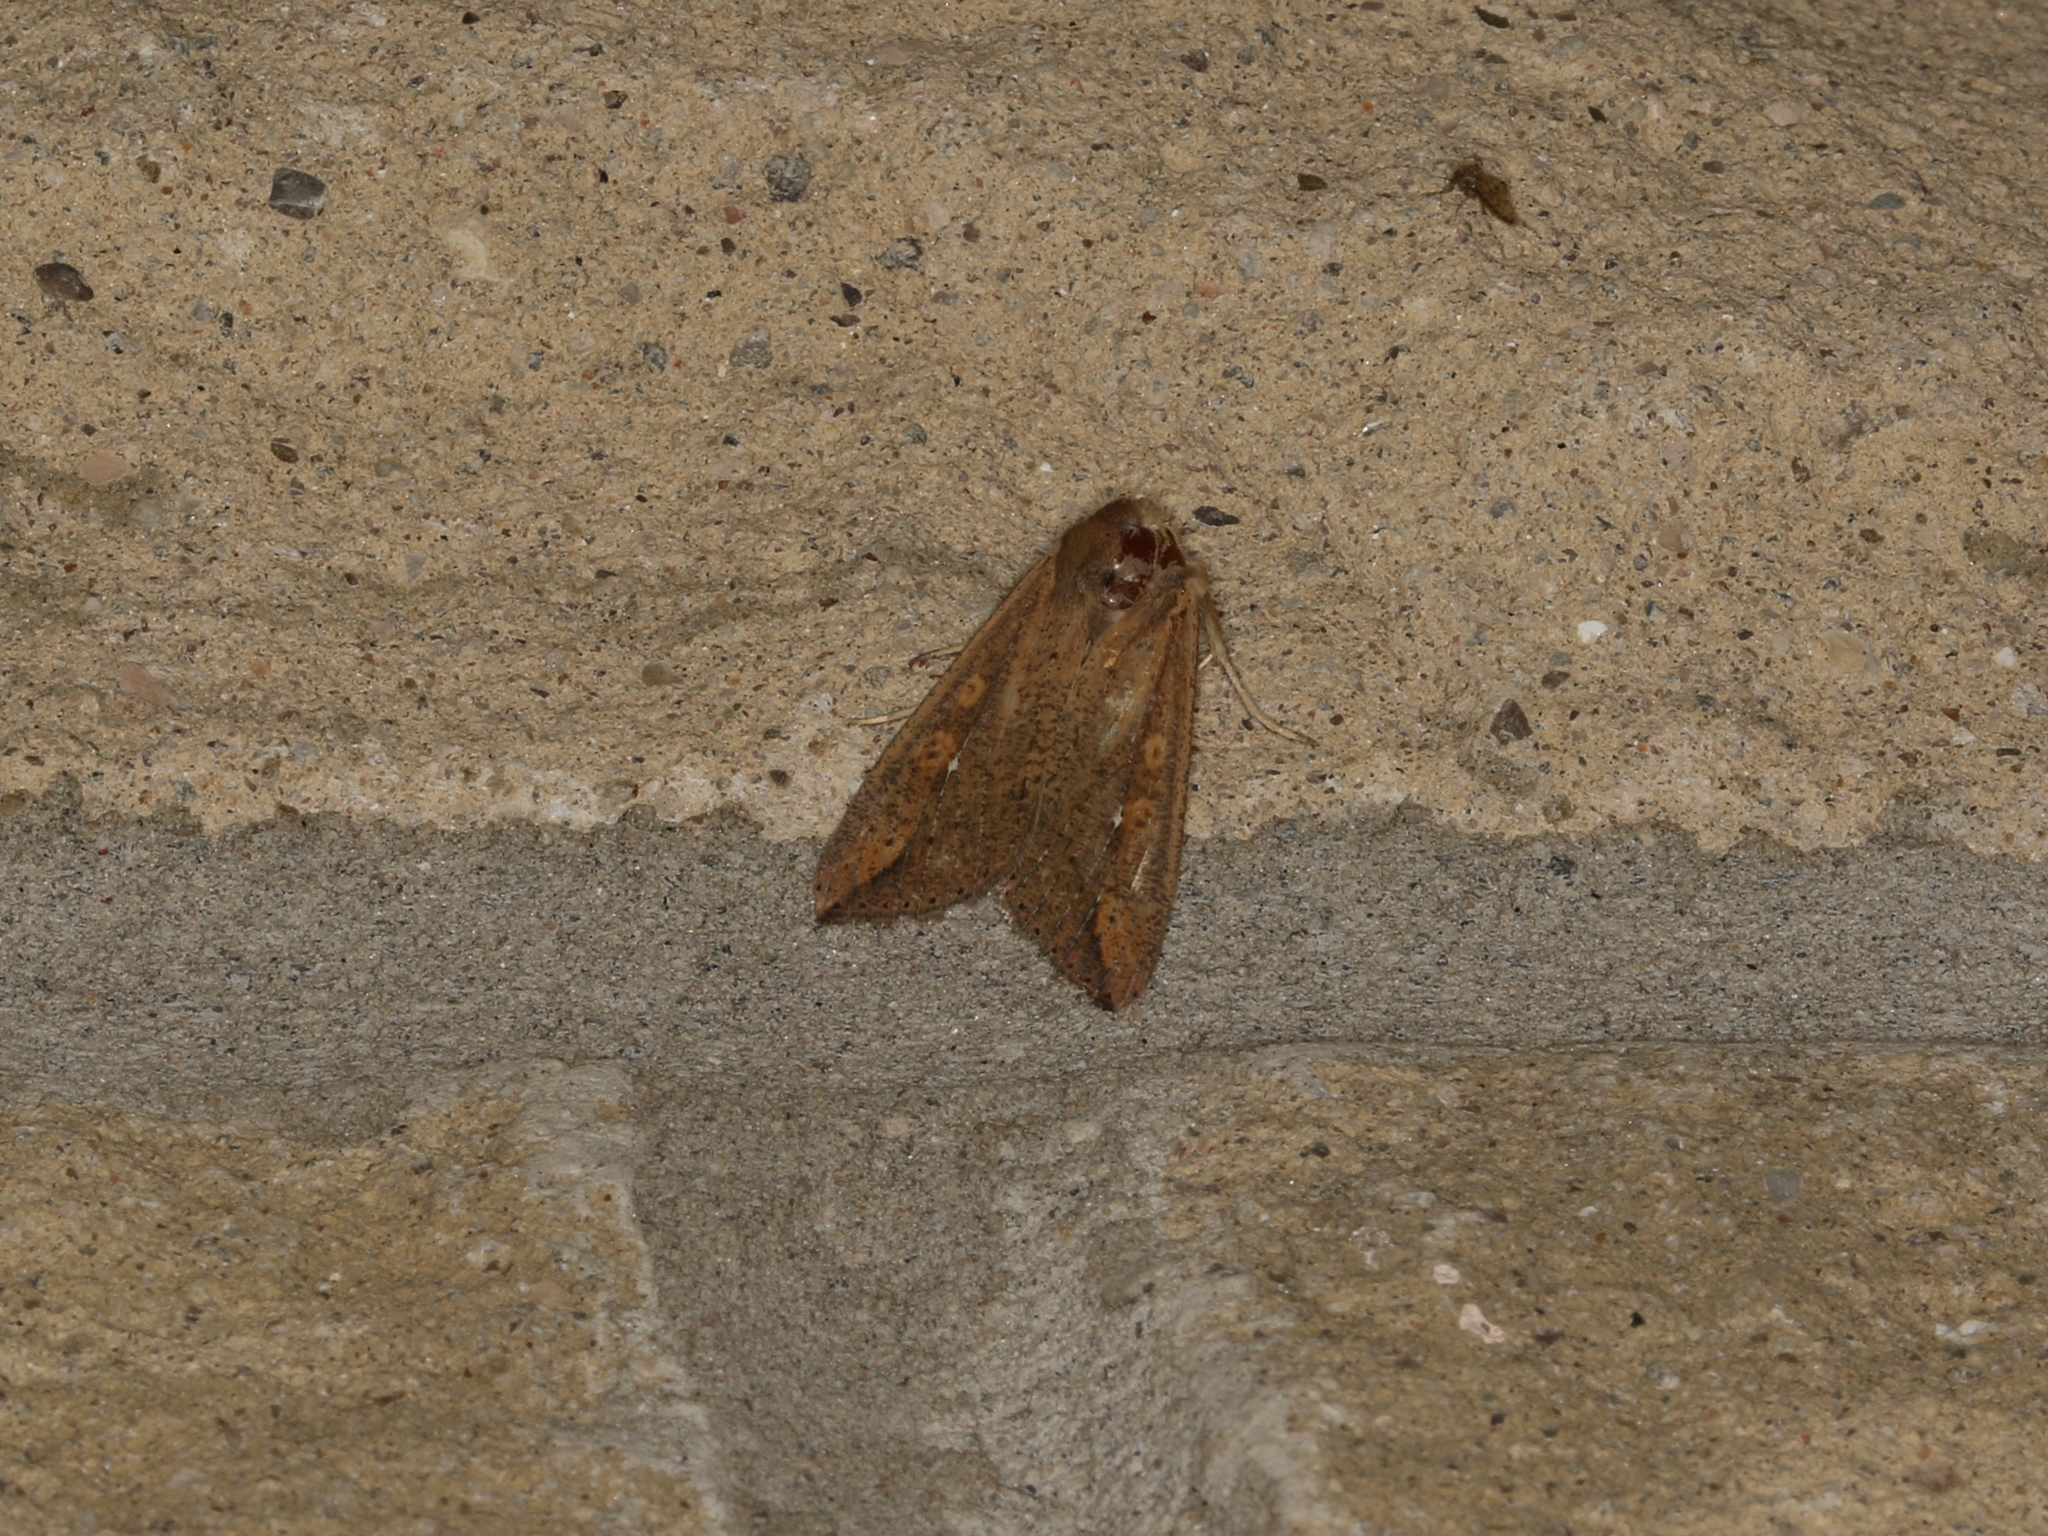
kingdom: Animalia
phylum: Arthropoda
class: Insecta
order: Lepidoptera
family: Noctuidae
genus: Mythimna
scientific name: Mythimna unipuncta
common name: White-speck
